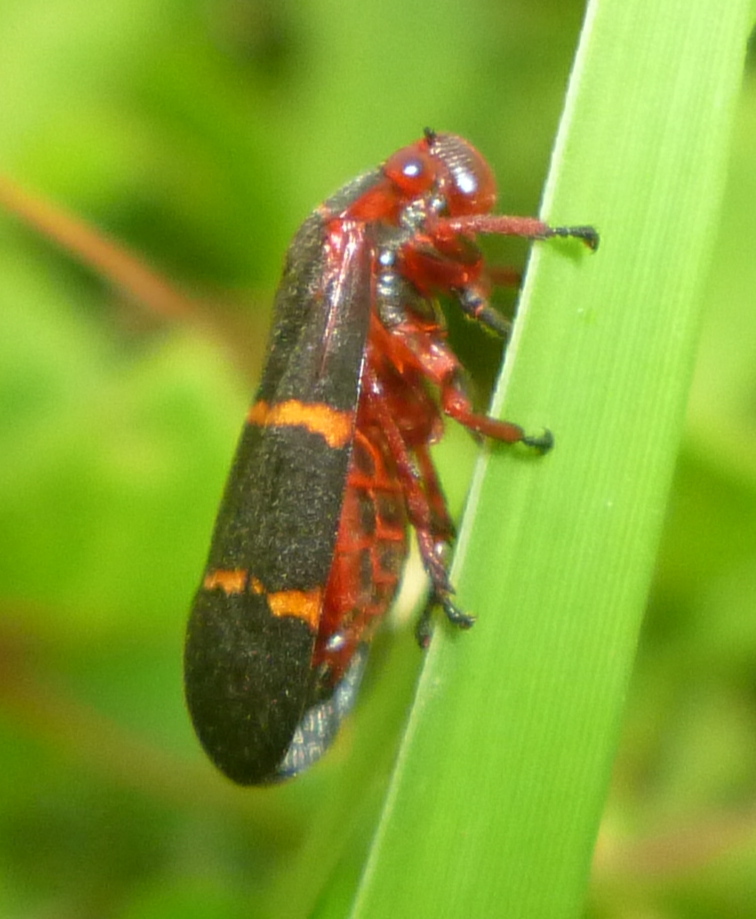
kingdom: Animalia
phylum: Arthropoda
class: Insecta
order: Hemiptera
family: Cercopidae
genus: Prosapia
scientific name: Prosapia bicincta
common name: Twolined spittlebug
